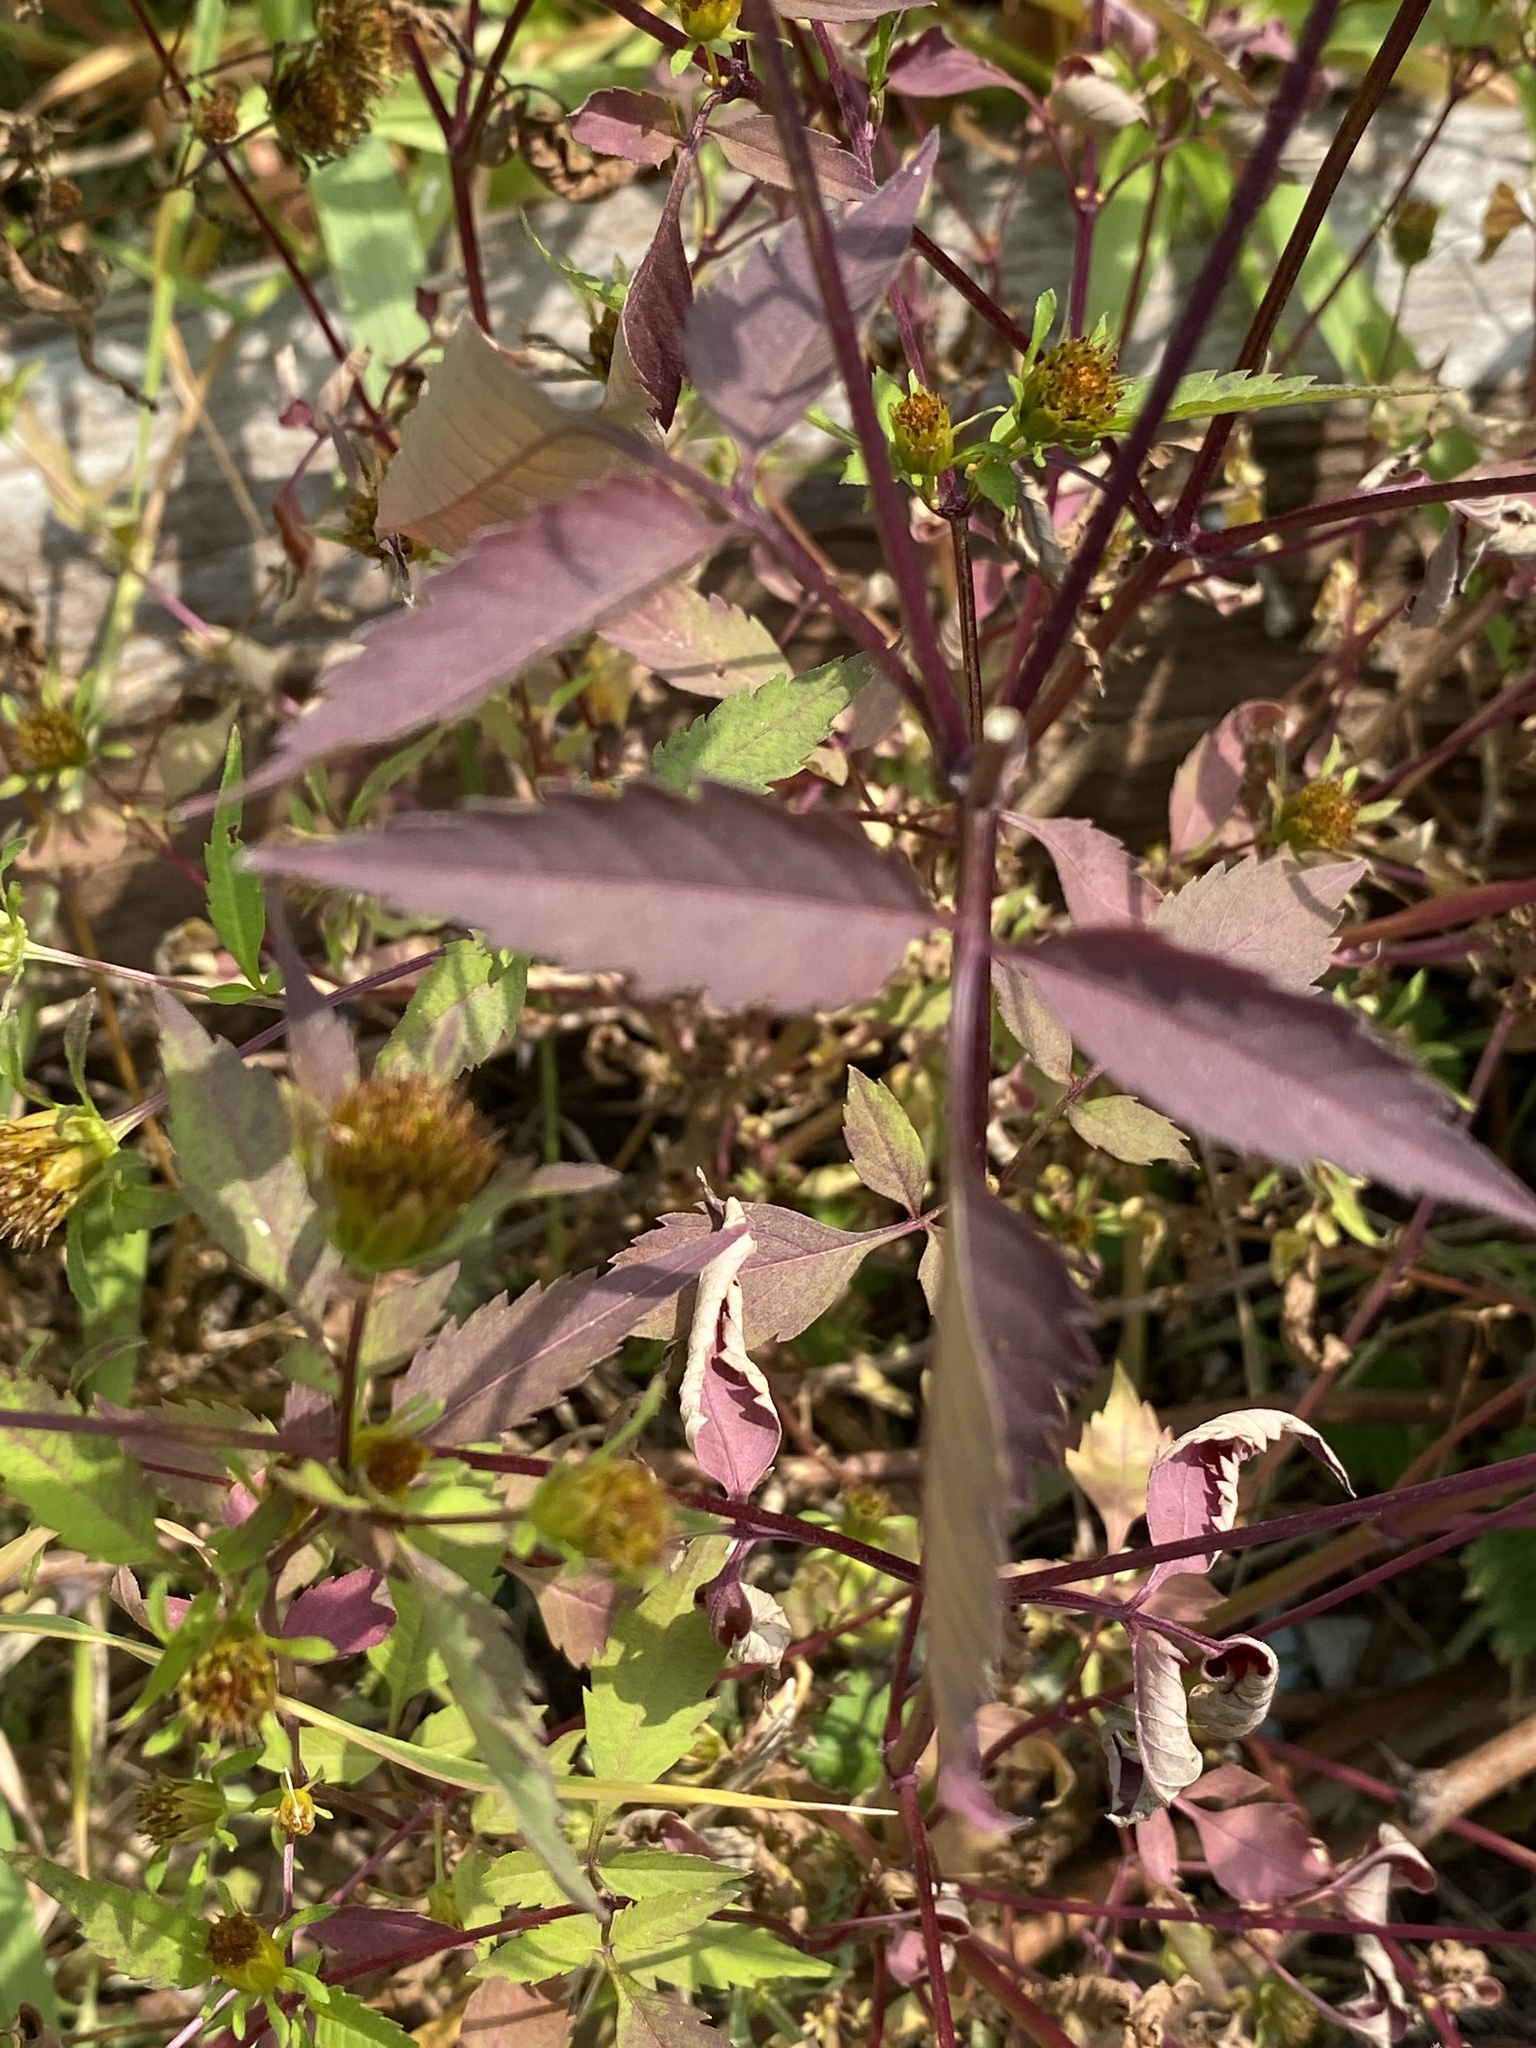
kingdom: Plantae
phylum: Tracheophyta
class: Magnoliopsida
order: Asterales
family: Asteraceae
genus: Bidens
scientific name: Bidens frondosa
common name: Beggarticks
